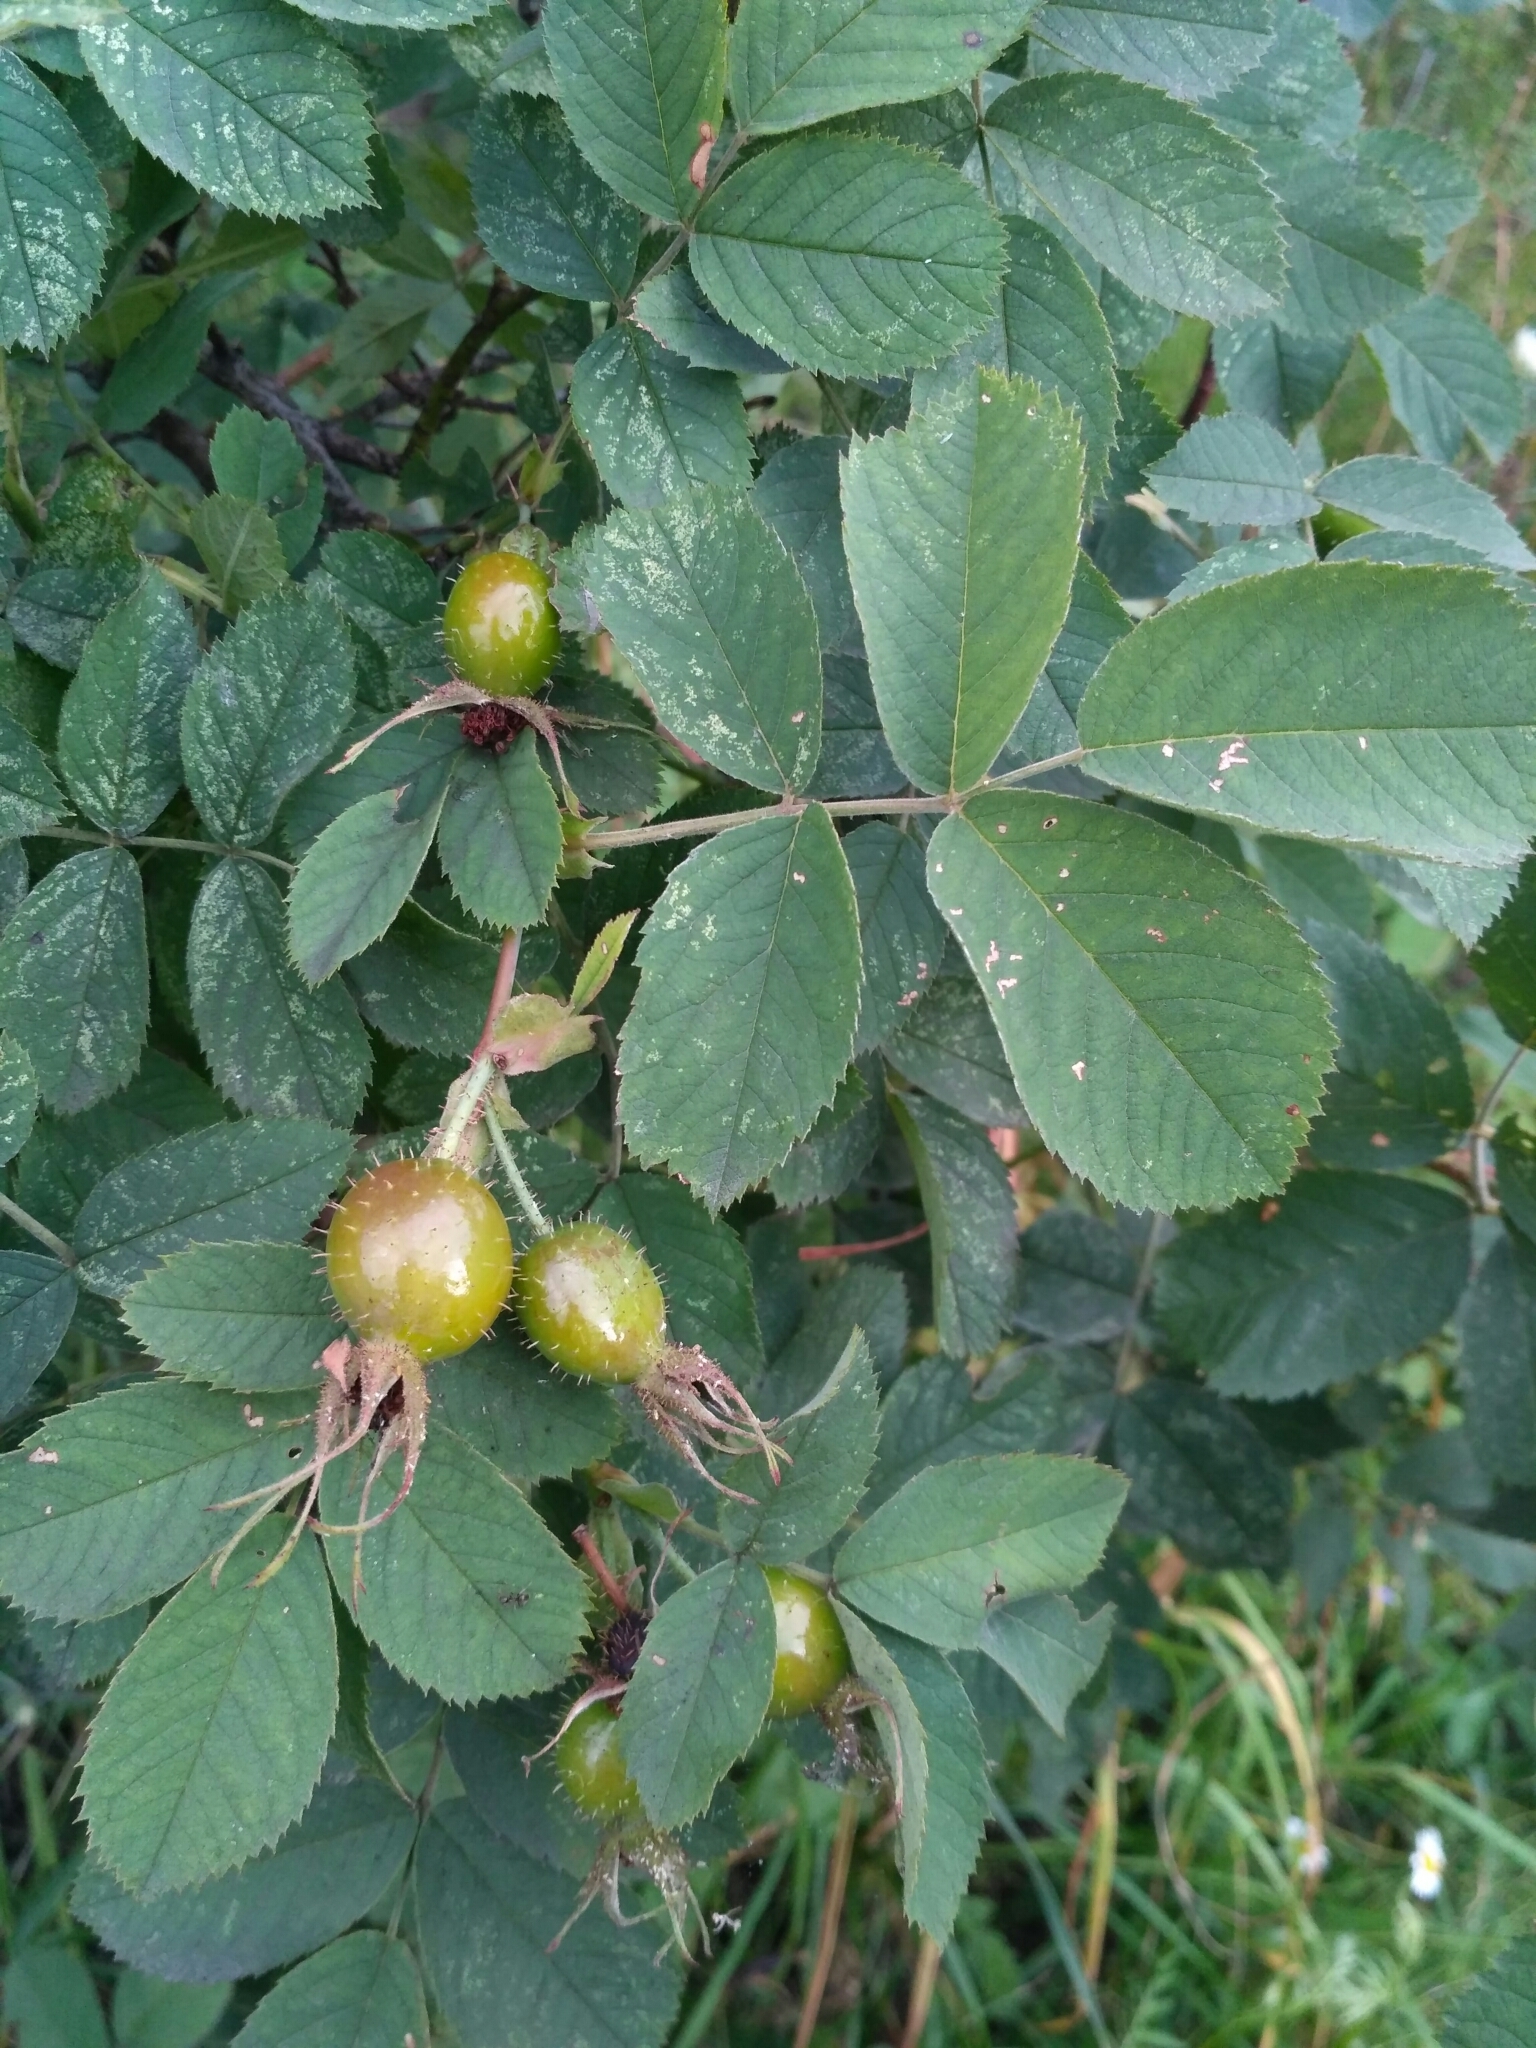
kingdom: Plantae
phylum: Tracheophyta
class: Magnoliopsida
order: Rosales
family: Rosaceae
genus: Rosa
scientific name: Rosa villosa
